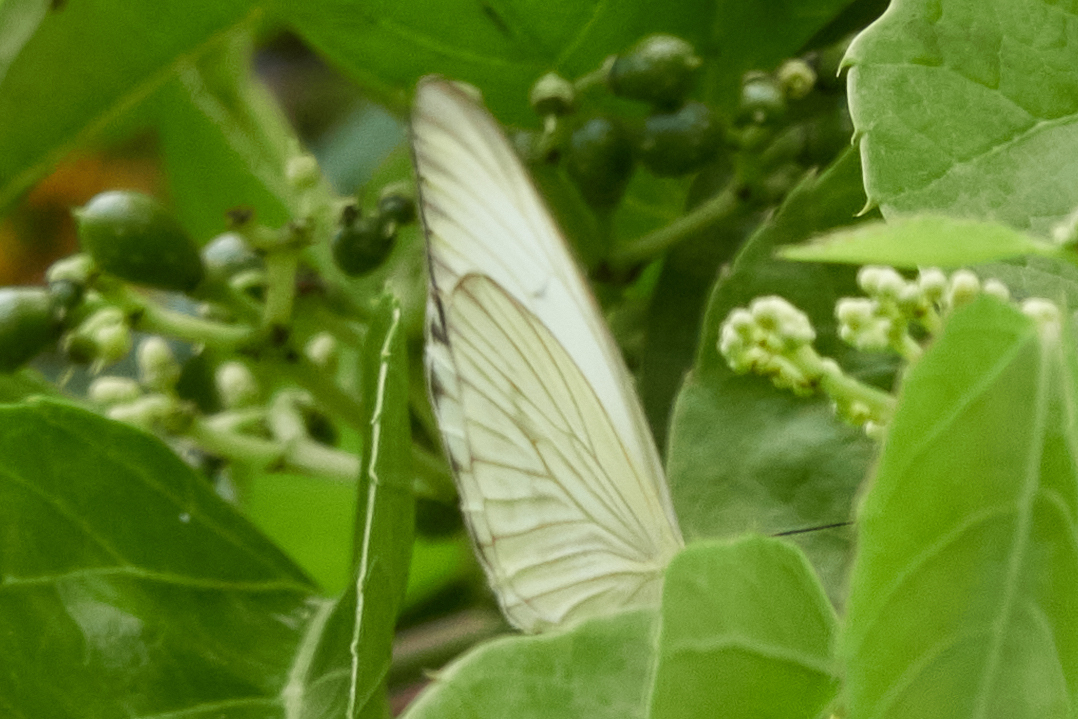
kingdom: Animalia
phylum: Arthropoda
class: Insecta
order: Lepidoptera
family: Pieridae
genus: Ascia
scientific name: Ascia monuste
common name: Great southern white
